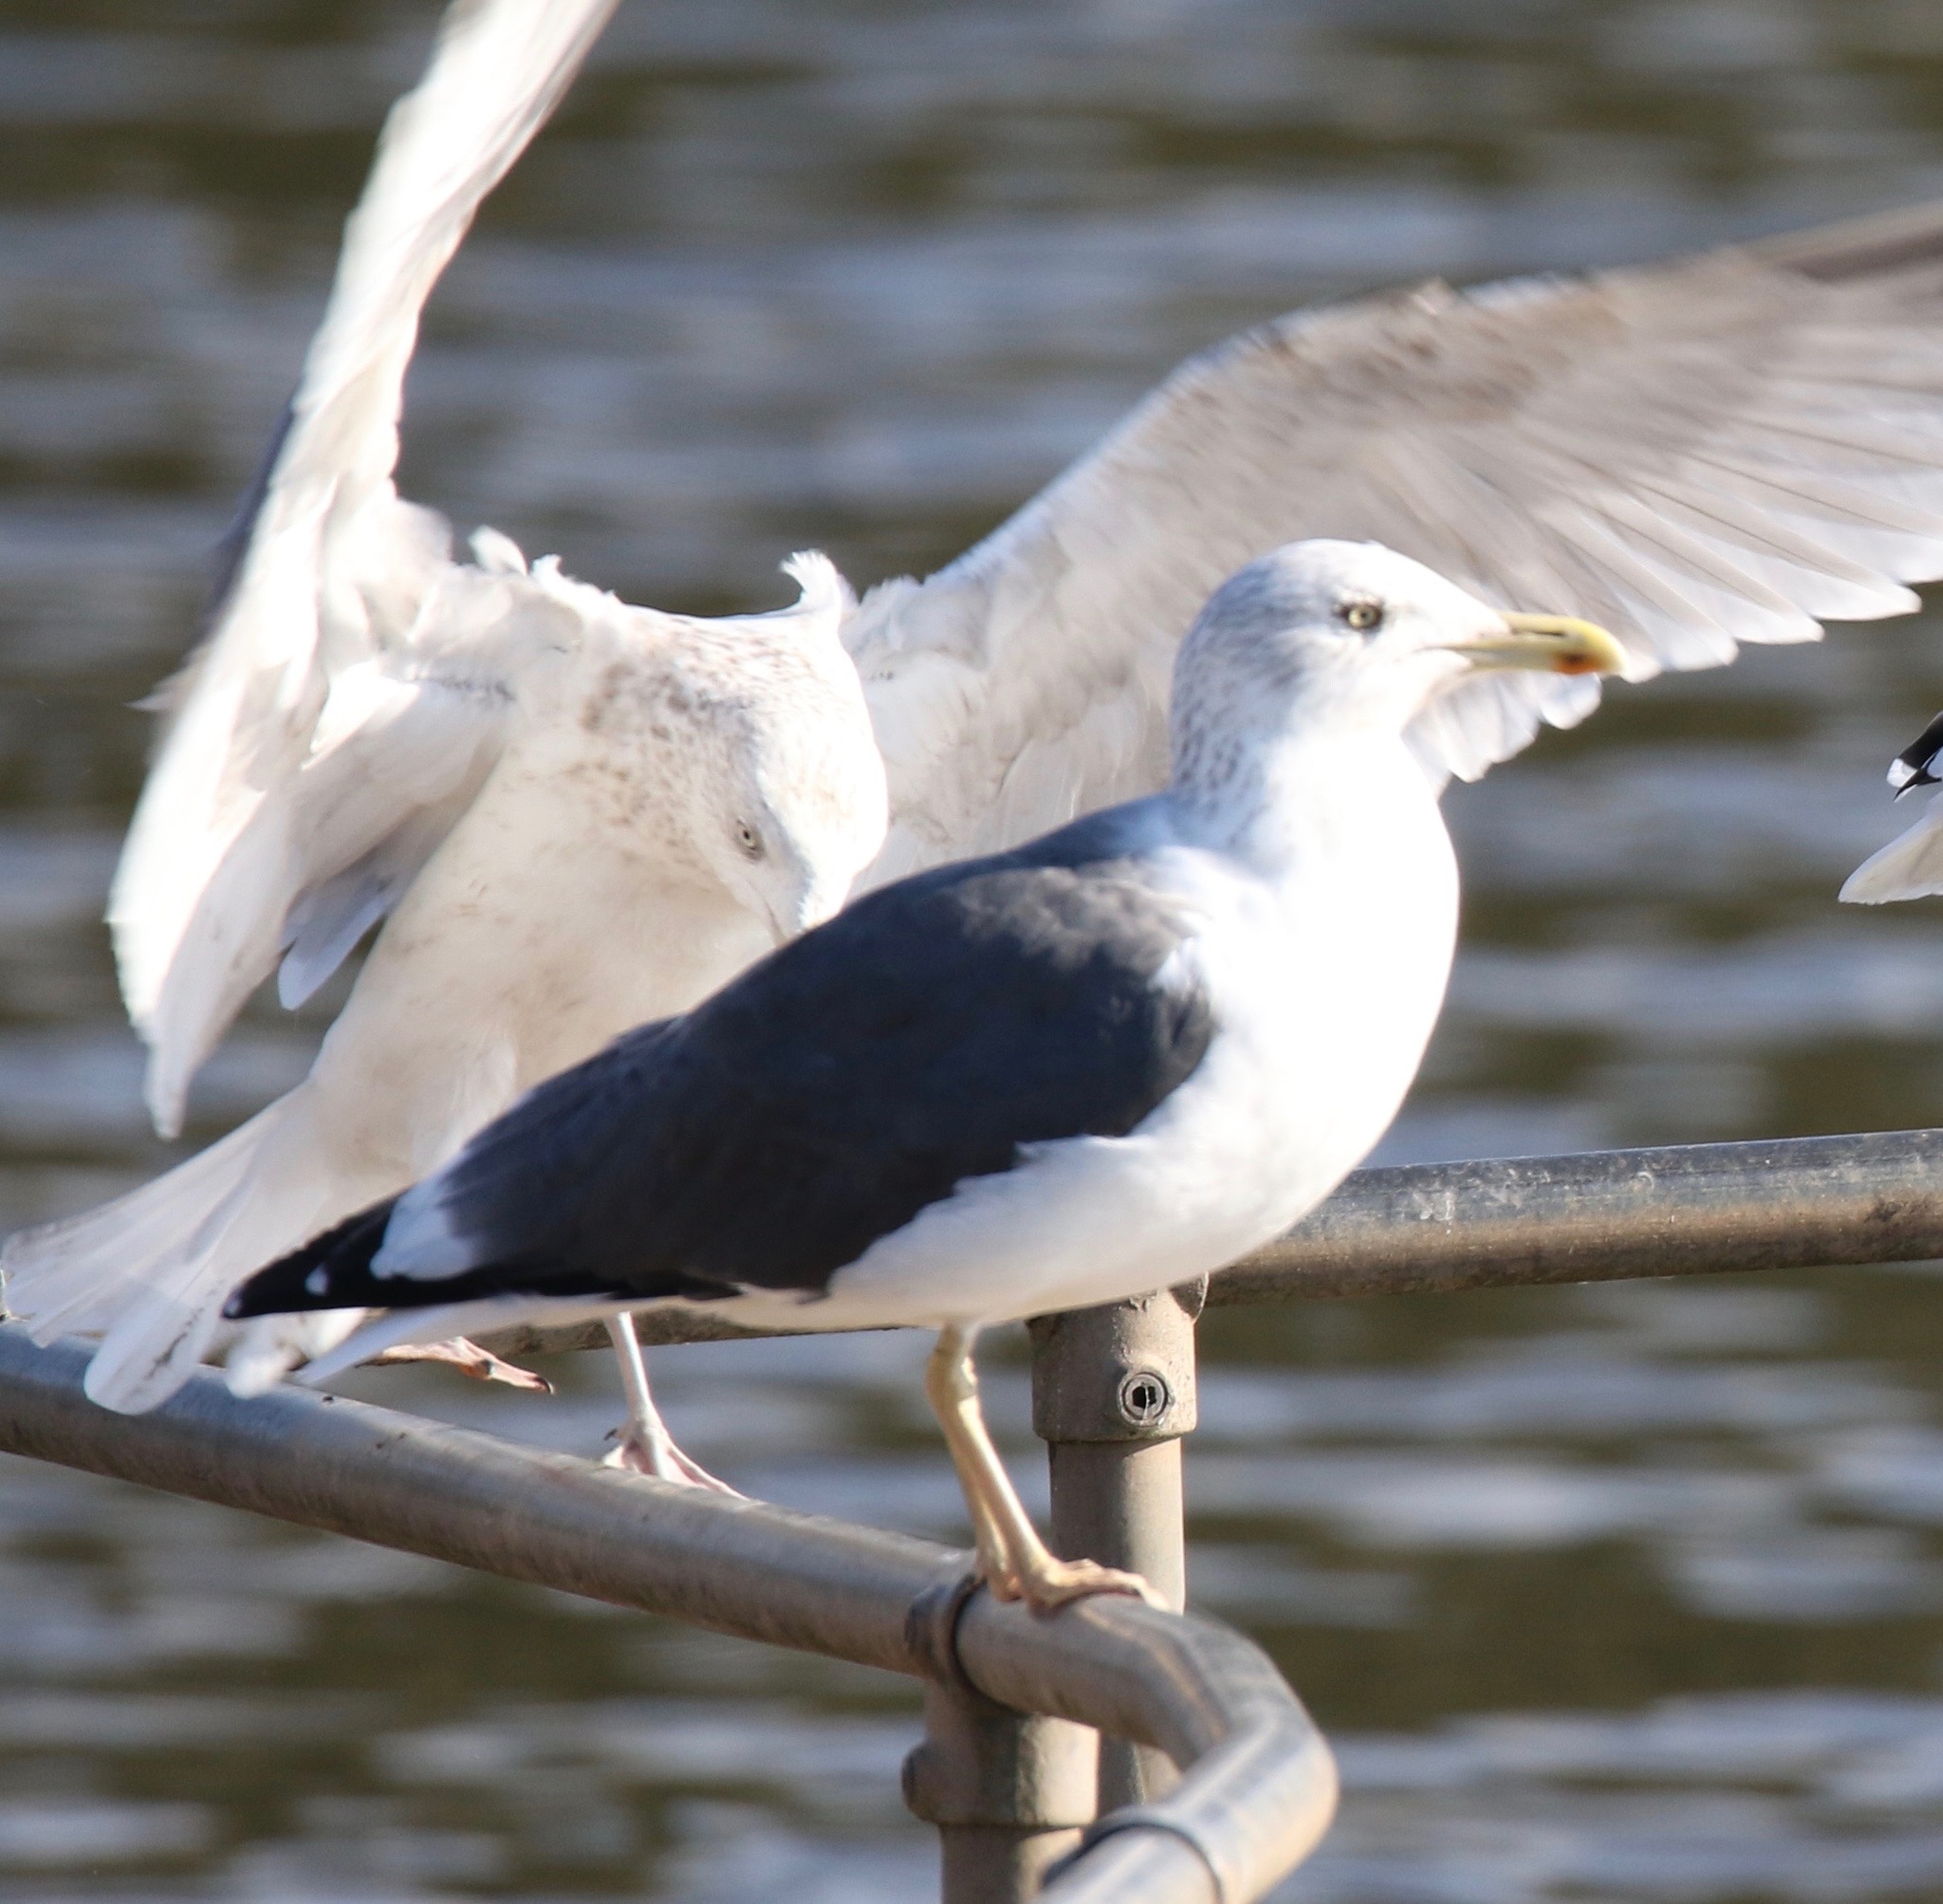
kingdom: Animalia
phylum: Chordata
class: Aves
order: Charadriiformes
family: Laridae
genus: Larus
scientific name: Larus fuscus
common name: Lesser black-backed gull
